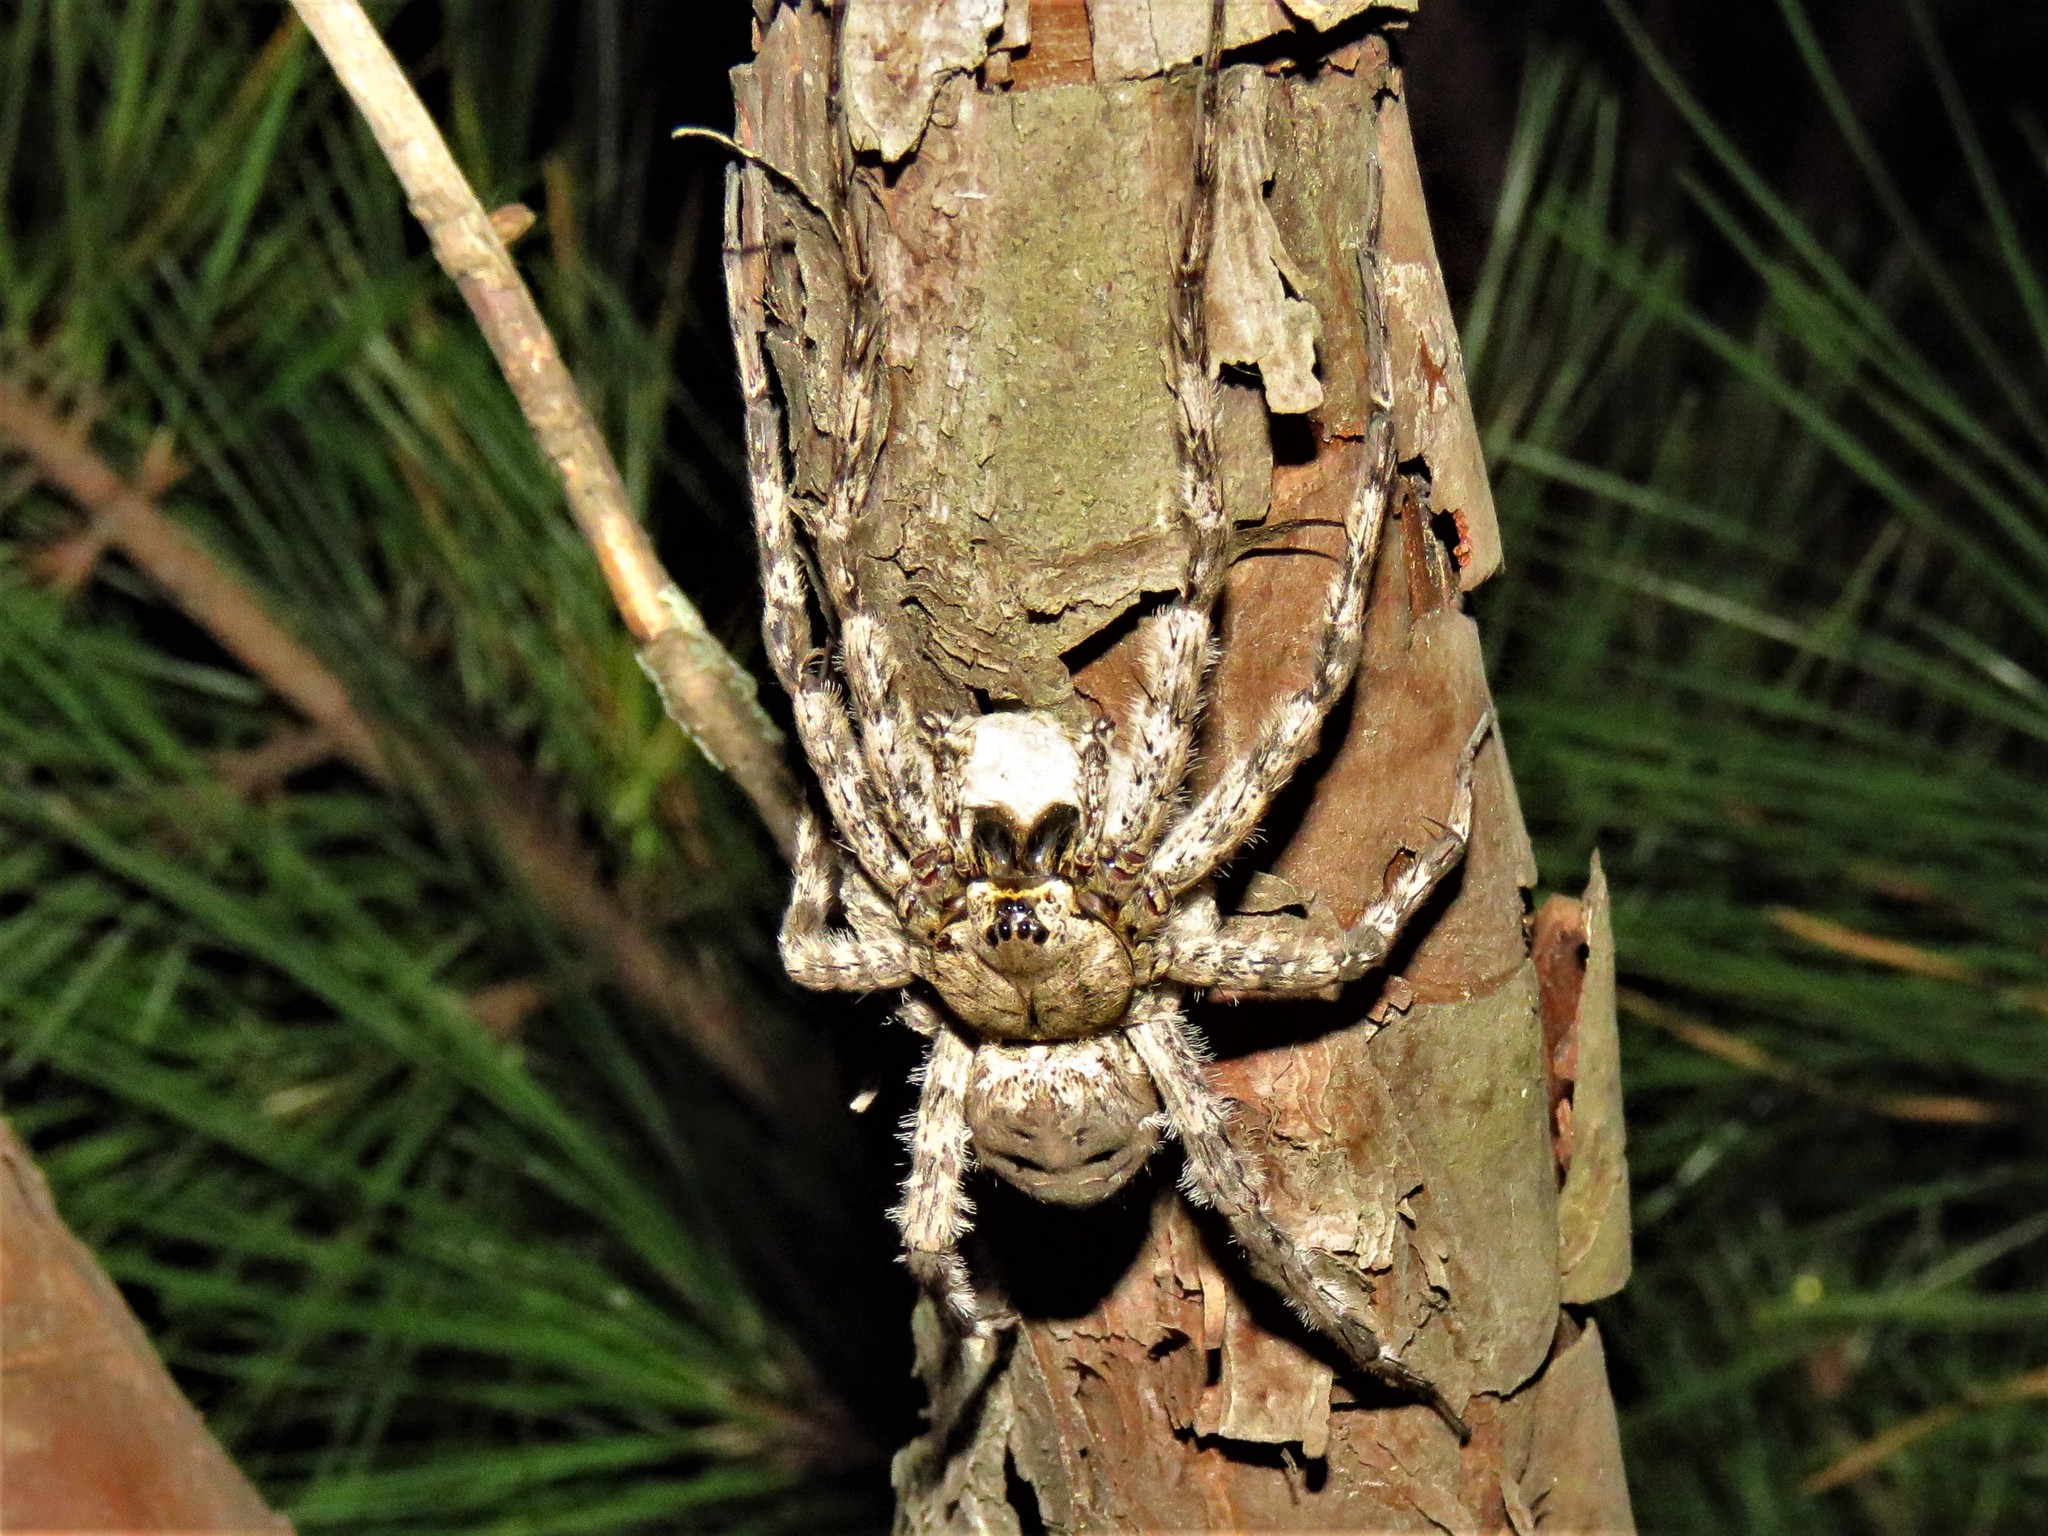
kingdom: Animalia
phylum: Arthropoda
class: Arachnida
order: Araneae
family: Pisauridae
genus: Dolomedes
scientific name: Dolomedes albineus
